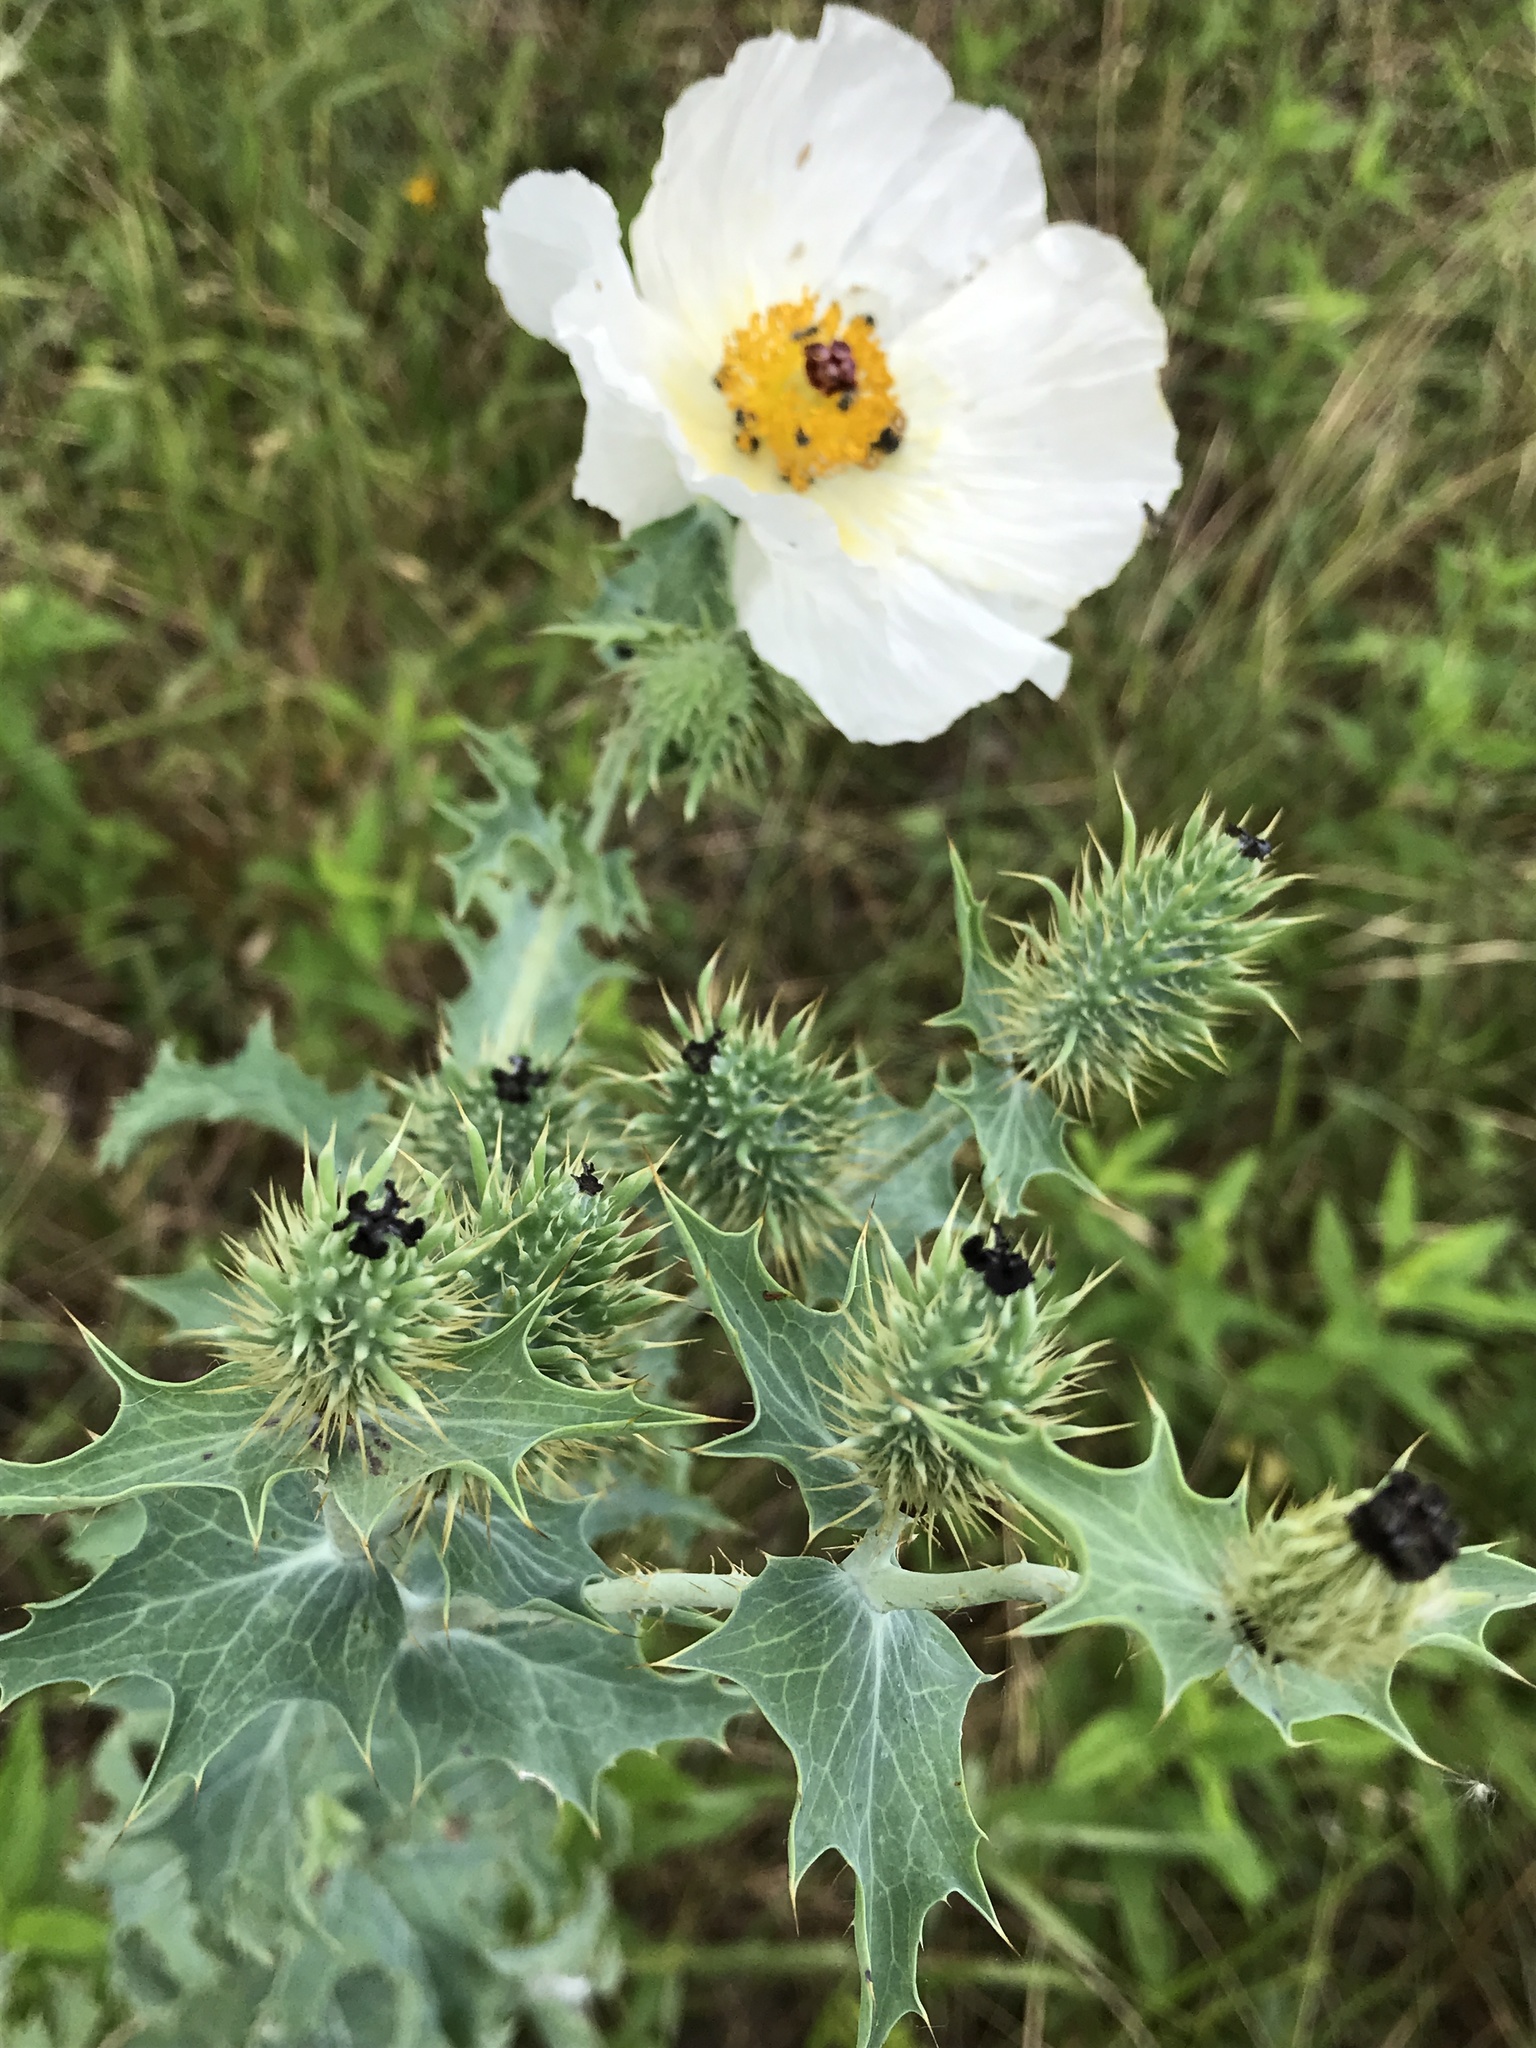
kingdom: Plantae
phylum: Tracheophyta
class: Magnoliopsida
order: Ranunculales
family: Papaveraceae
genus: Argemone
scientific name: Argemone polyanthemos
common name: Plains prickly-poppy
